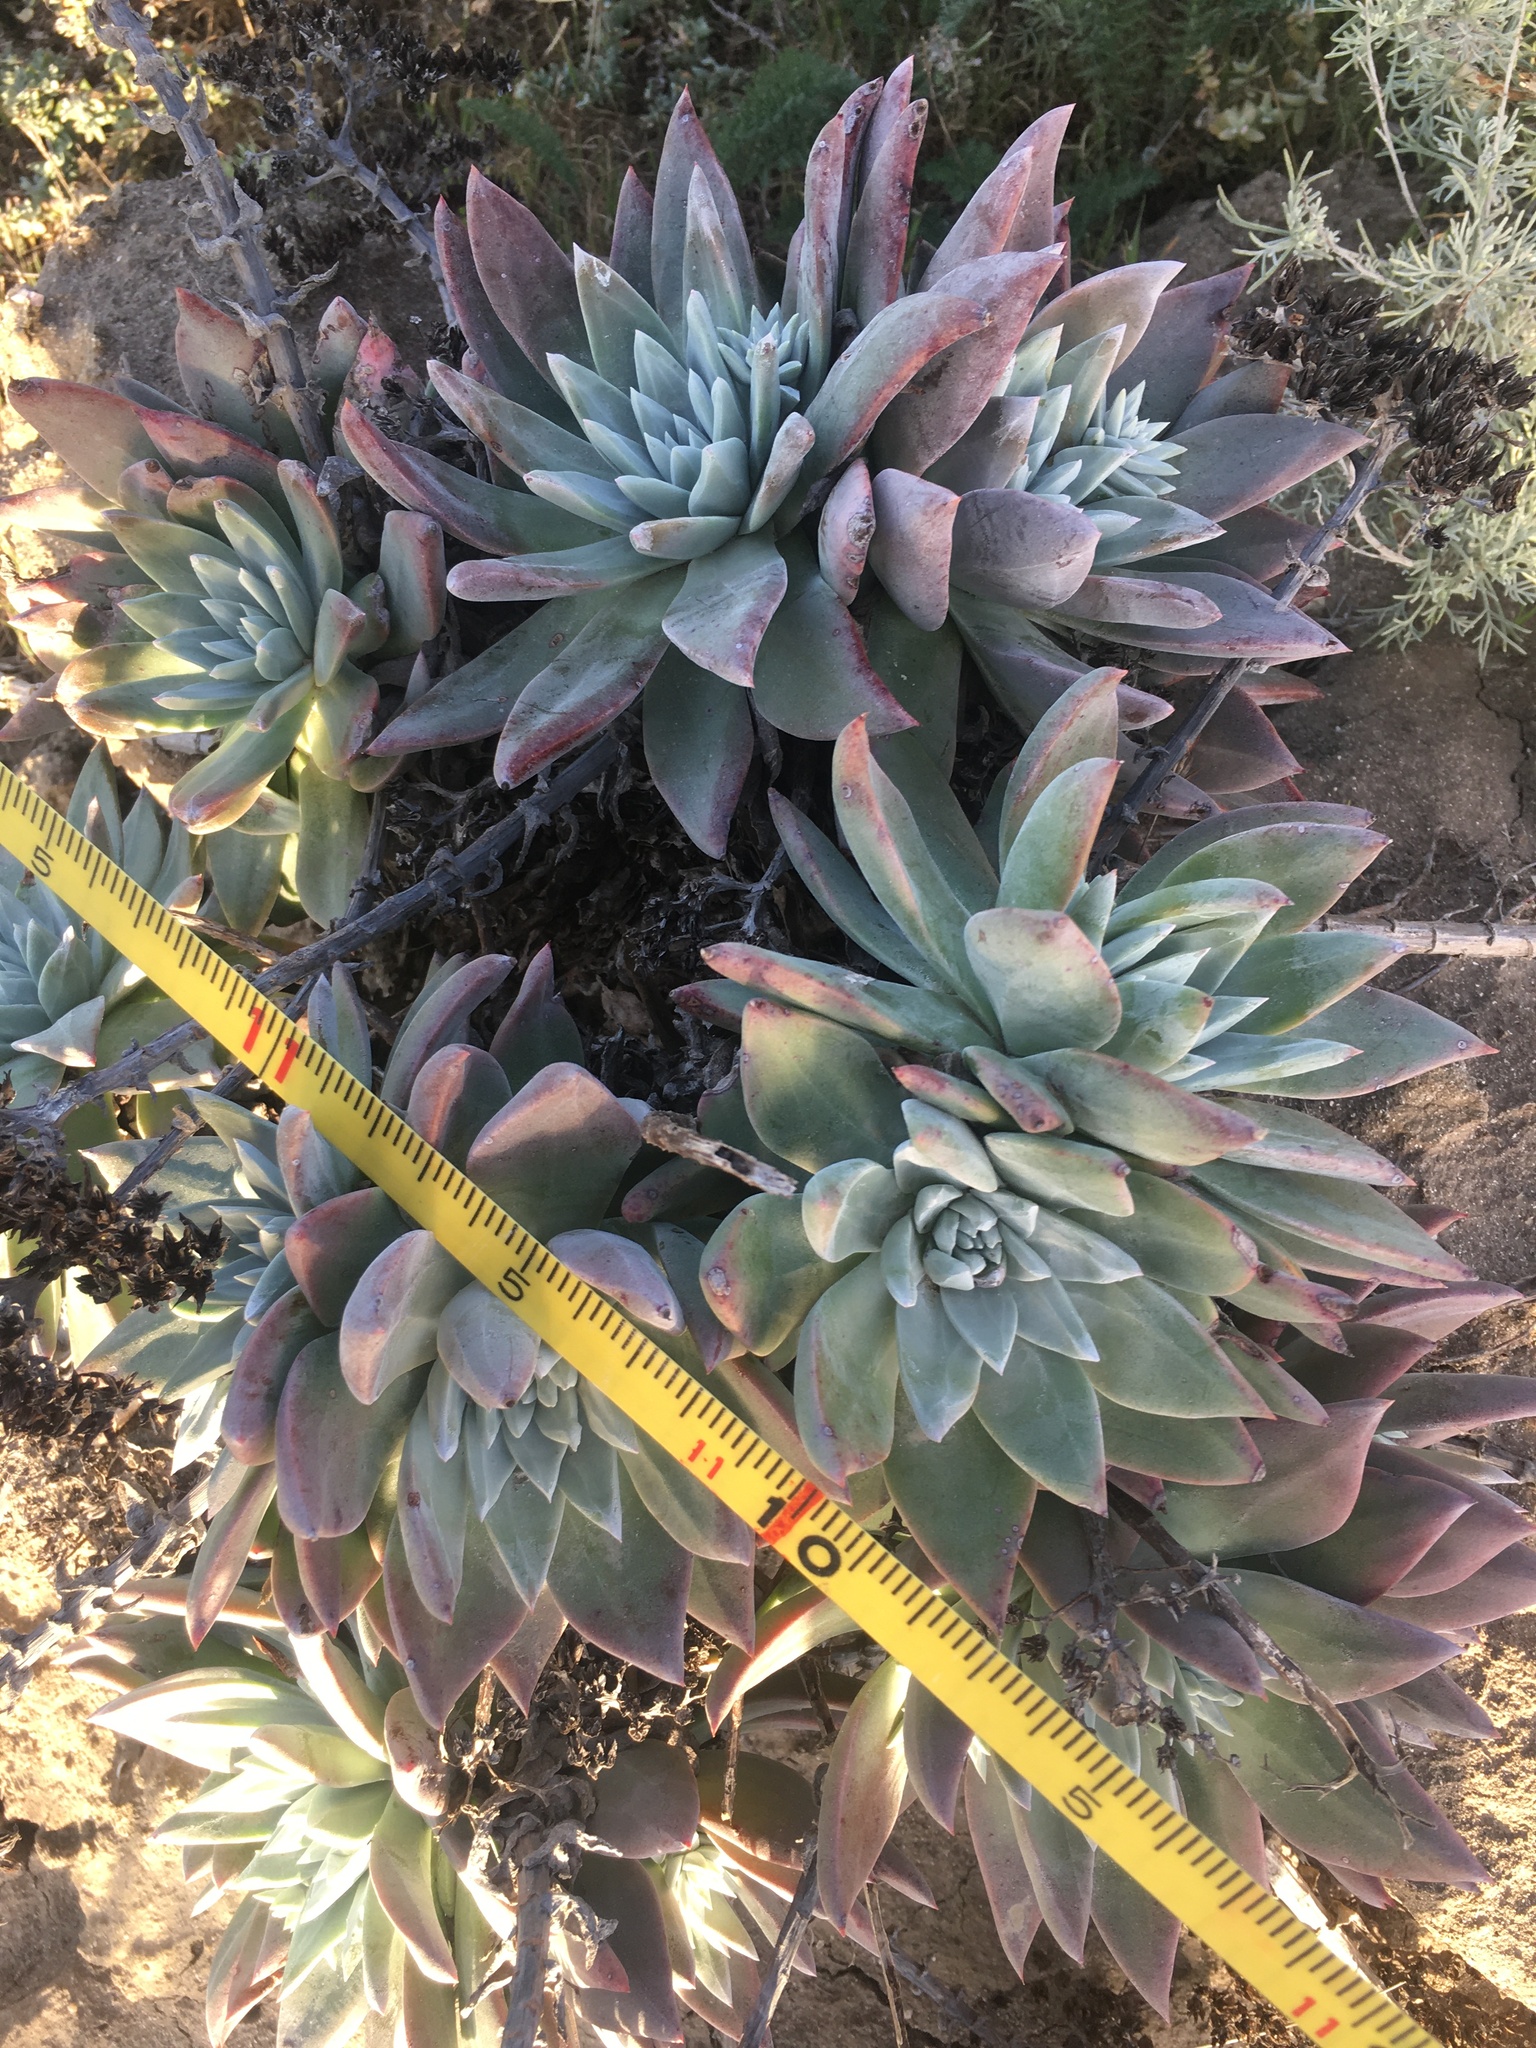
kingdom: Plantae
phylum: Tracheophyta
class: Magnoliopsida
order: Saxifragales
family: Crassulaceae
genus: Dudleya
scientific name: Dudleya greenei
